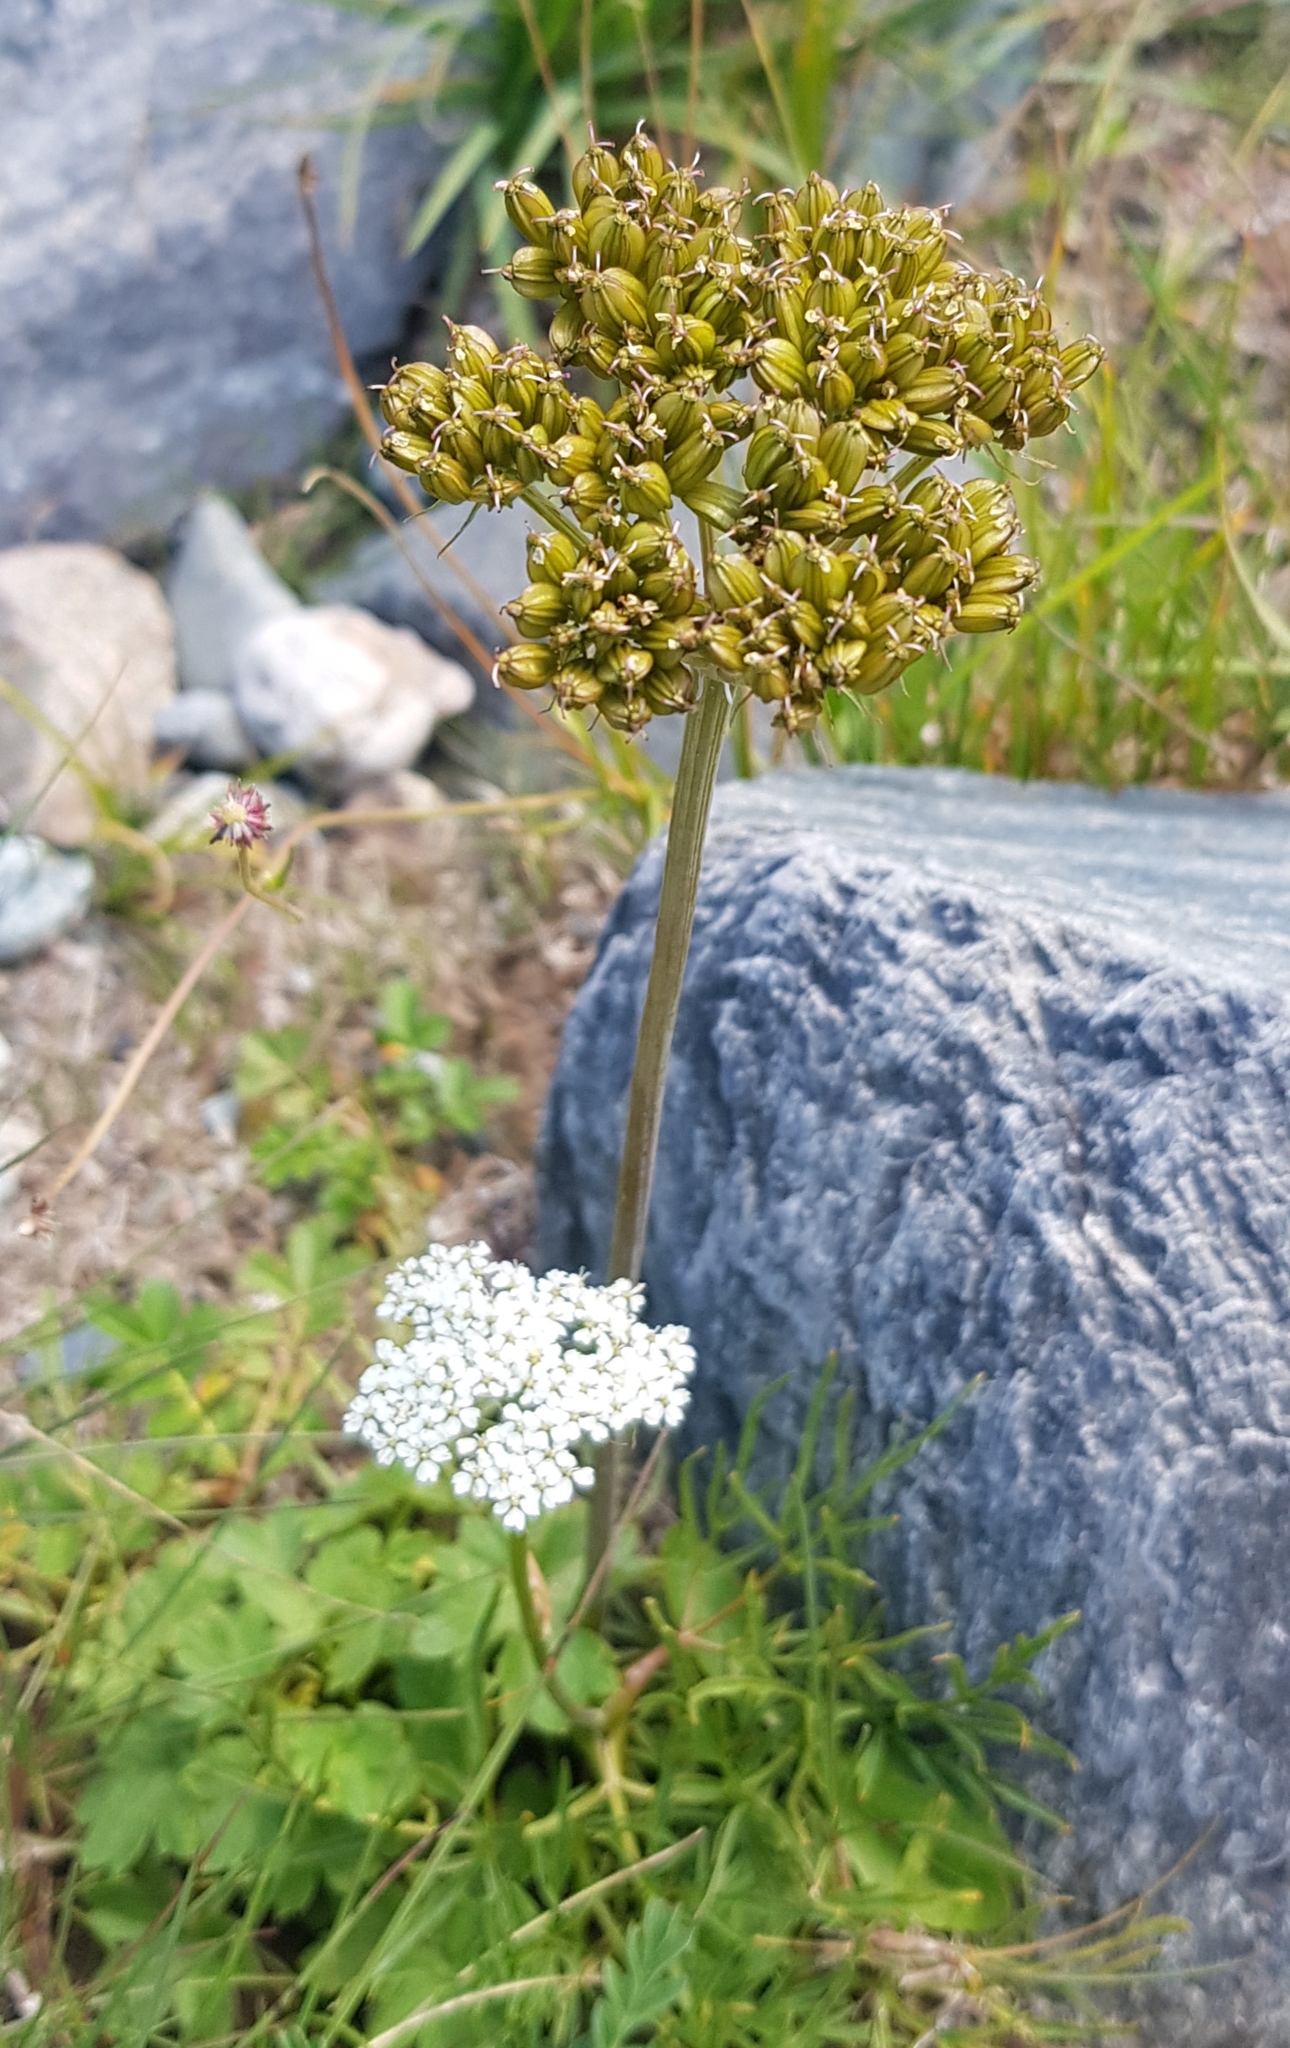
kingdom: Plantae
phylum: Tracheophyta
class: Magnoliopsida
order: Apiales
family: Apiaceae
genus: Conioselinum
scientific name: Conioselinum tataricum
